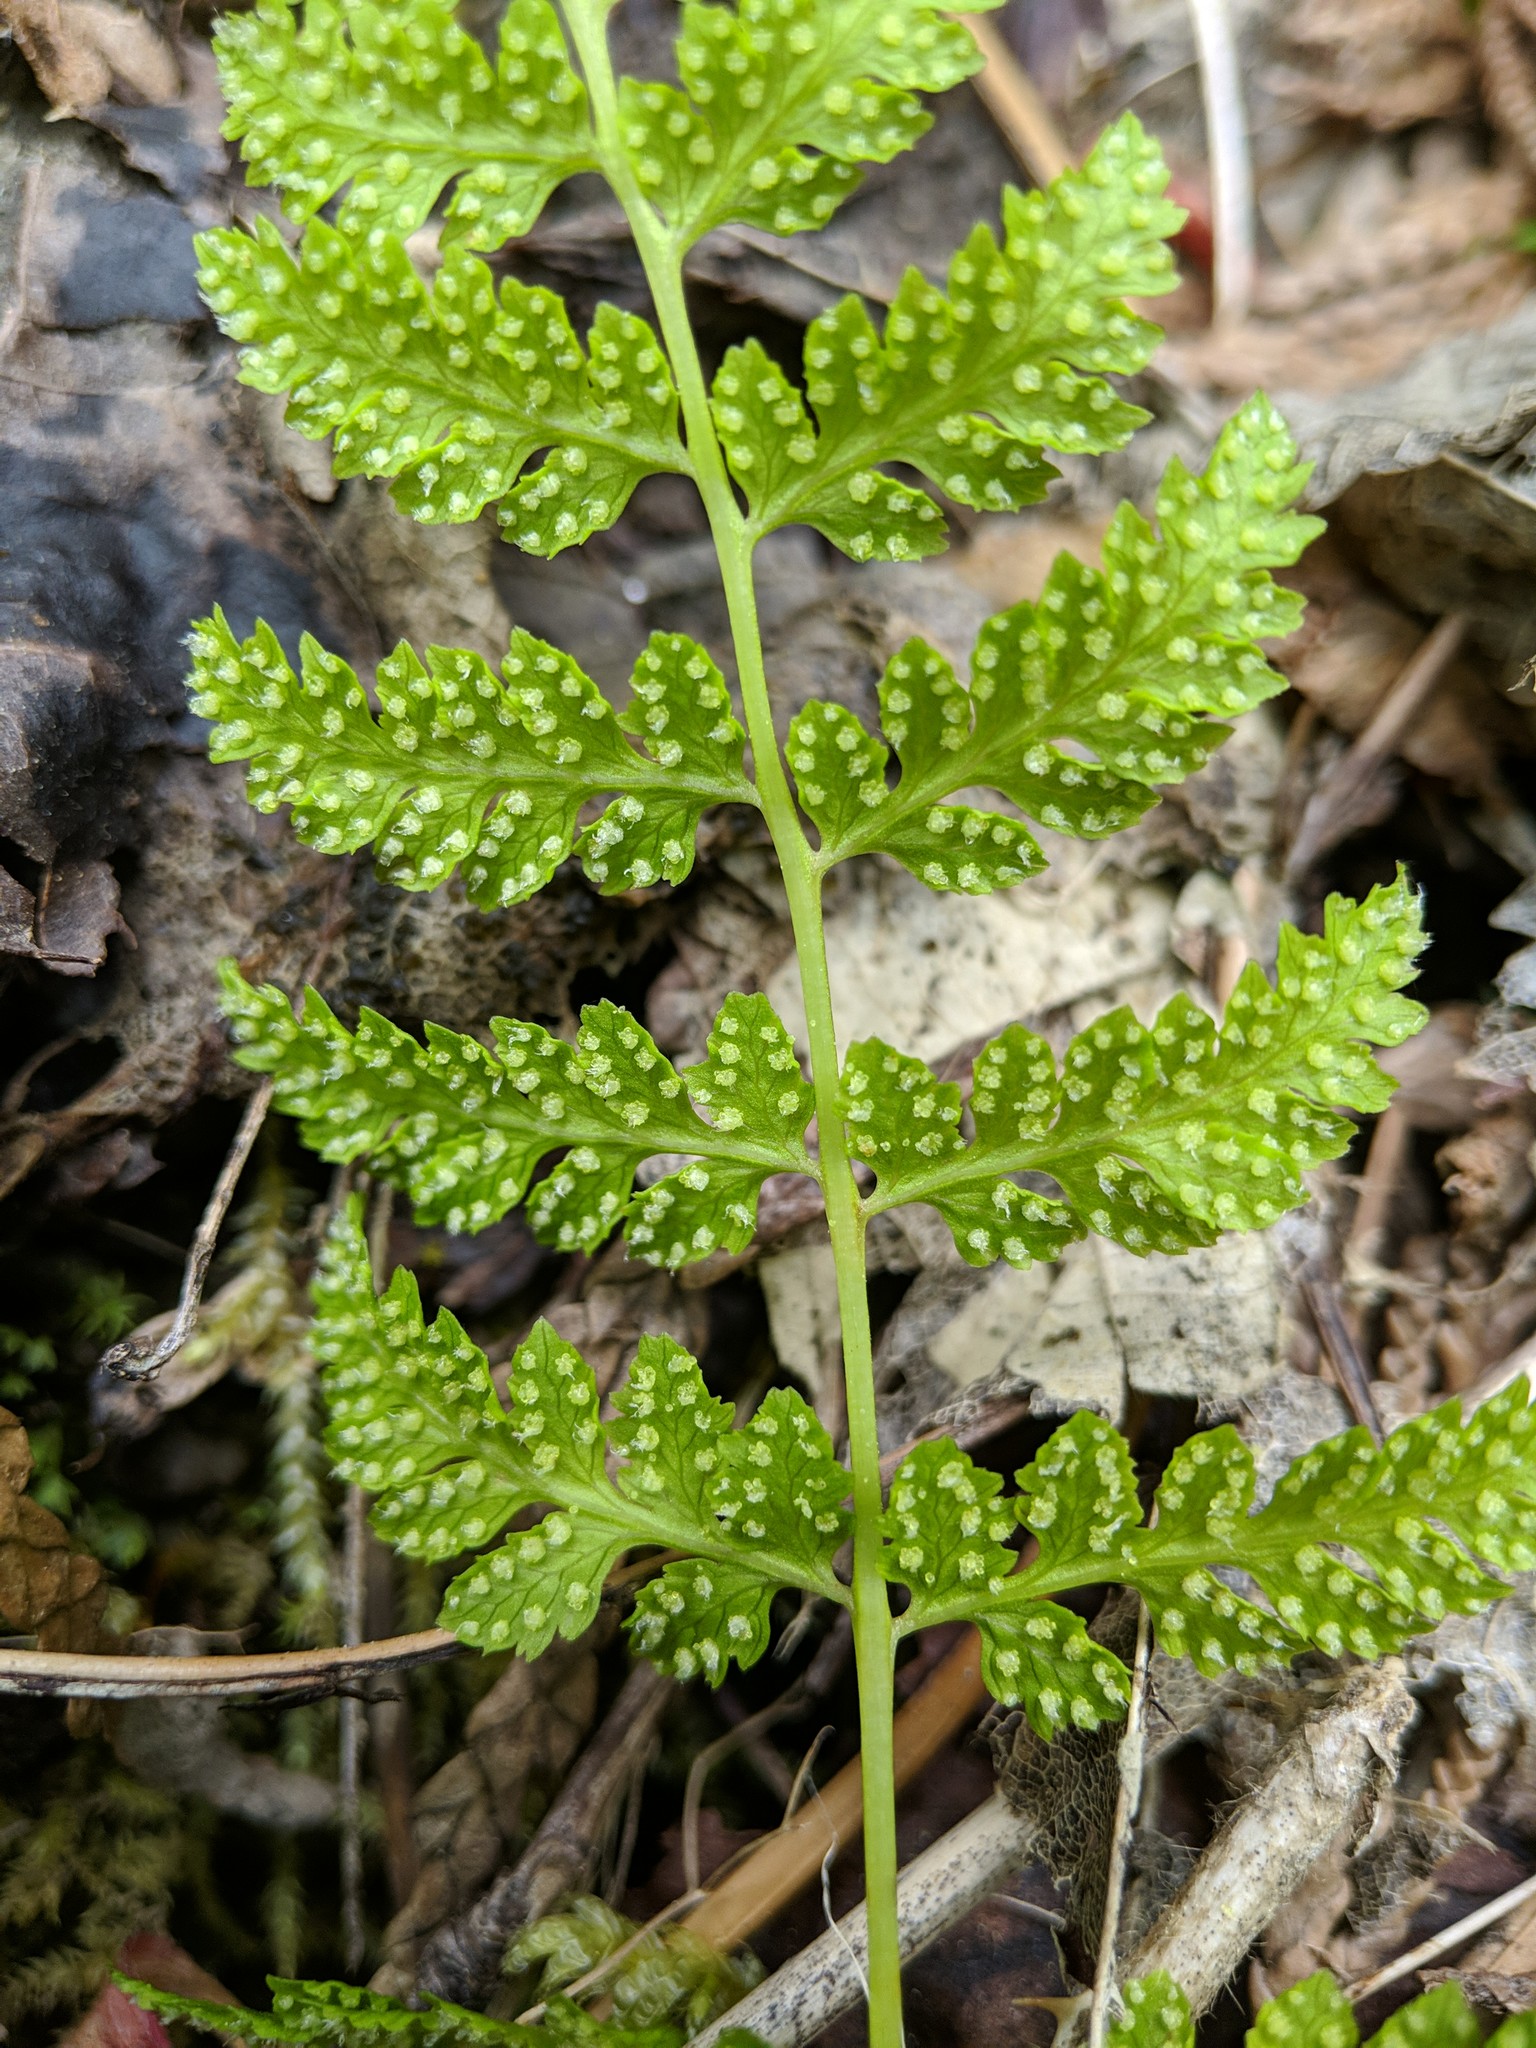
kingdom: Plantae
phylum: Tracheophyta
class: Polypodiopsida
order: Polypodiales
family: Cystopteridaceae
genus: Cystopteris
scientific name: Cystopteris fragilis
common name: Brittle bladder fern
